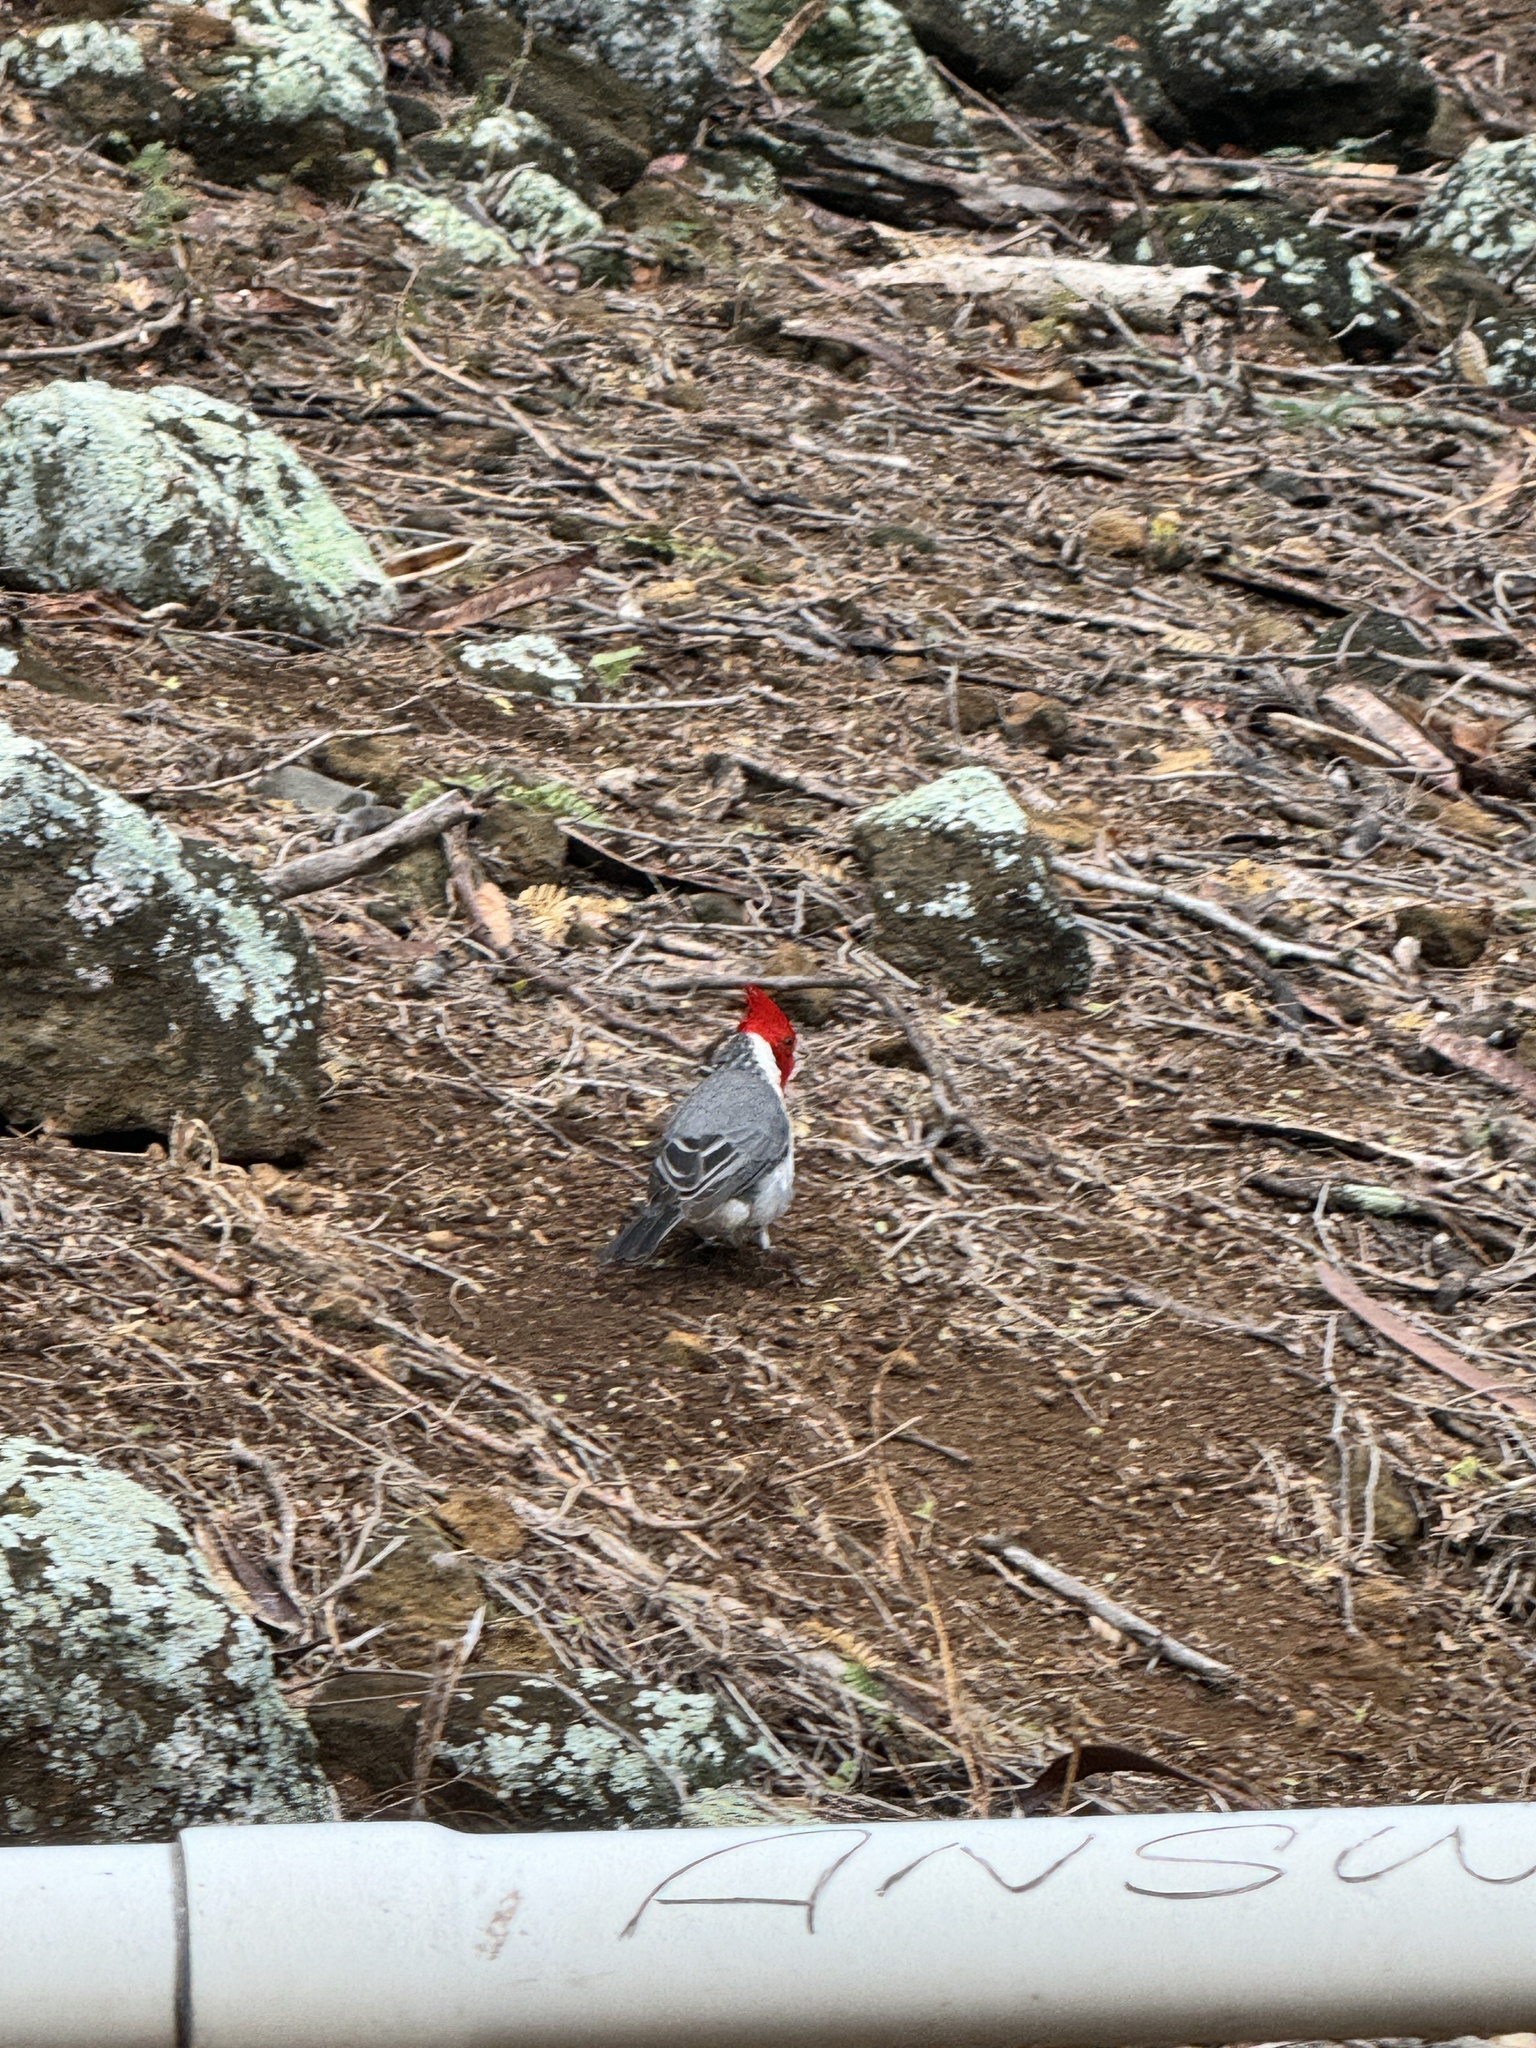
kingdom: Animalia
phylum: Chordata
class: Aves
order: Passeriformes
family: Thraupidae
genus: Paroaria
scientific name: Paroaria coronata
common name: Red-crested cardinal
